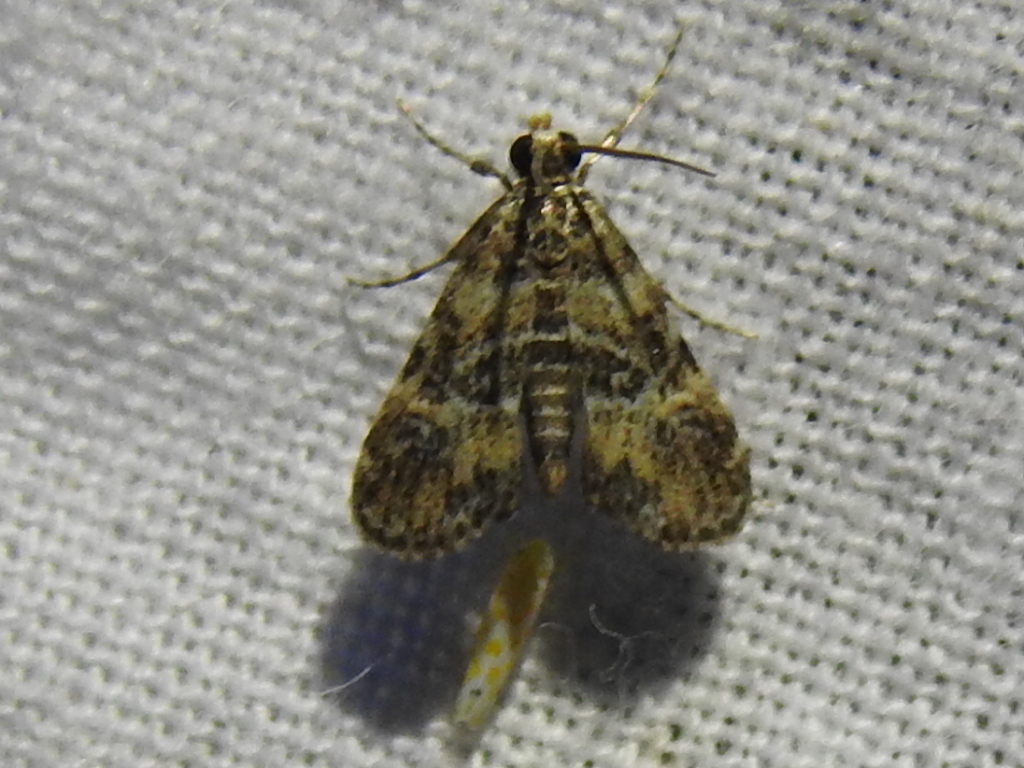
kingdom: Animalia
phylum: Arthropoda
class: Insecta
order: Lepidoptera
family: Crambidae
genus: Elophila
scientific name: Elophila obliteralis
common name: Waterlily leafcutter moth
